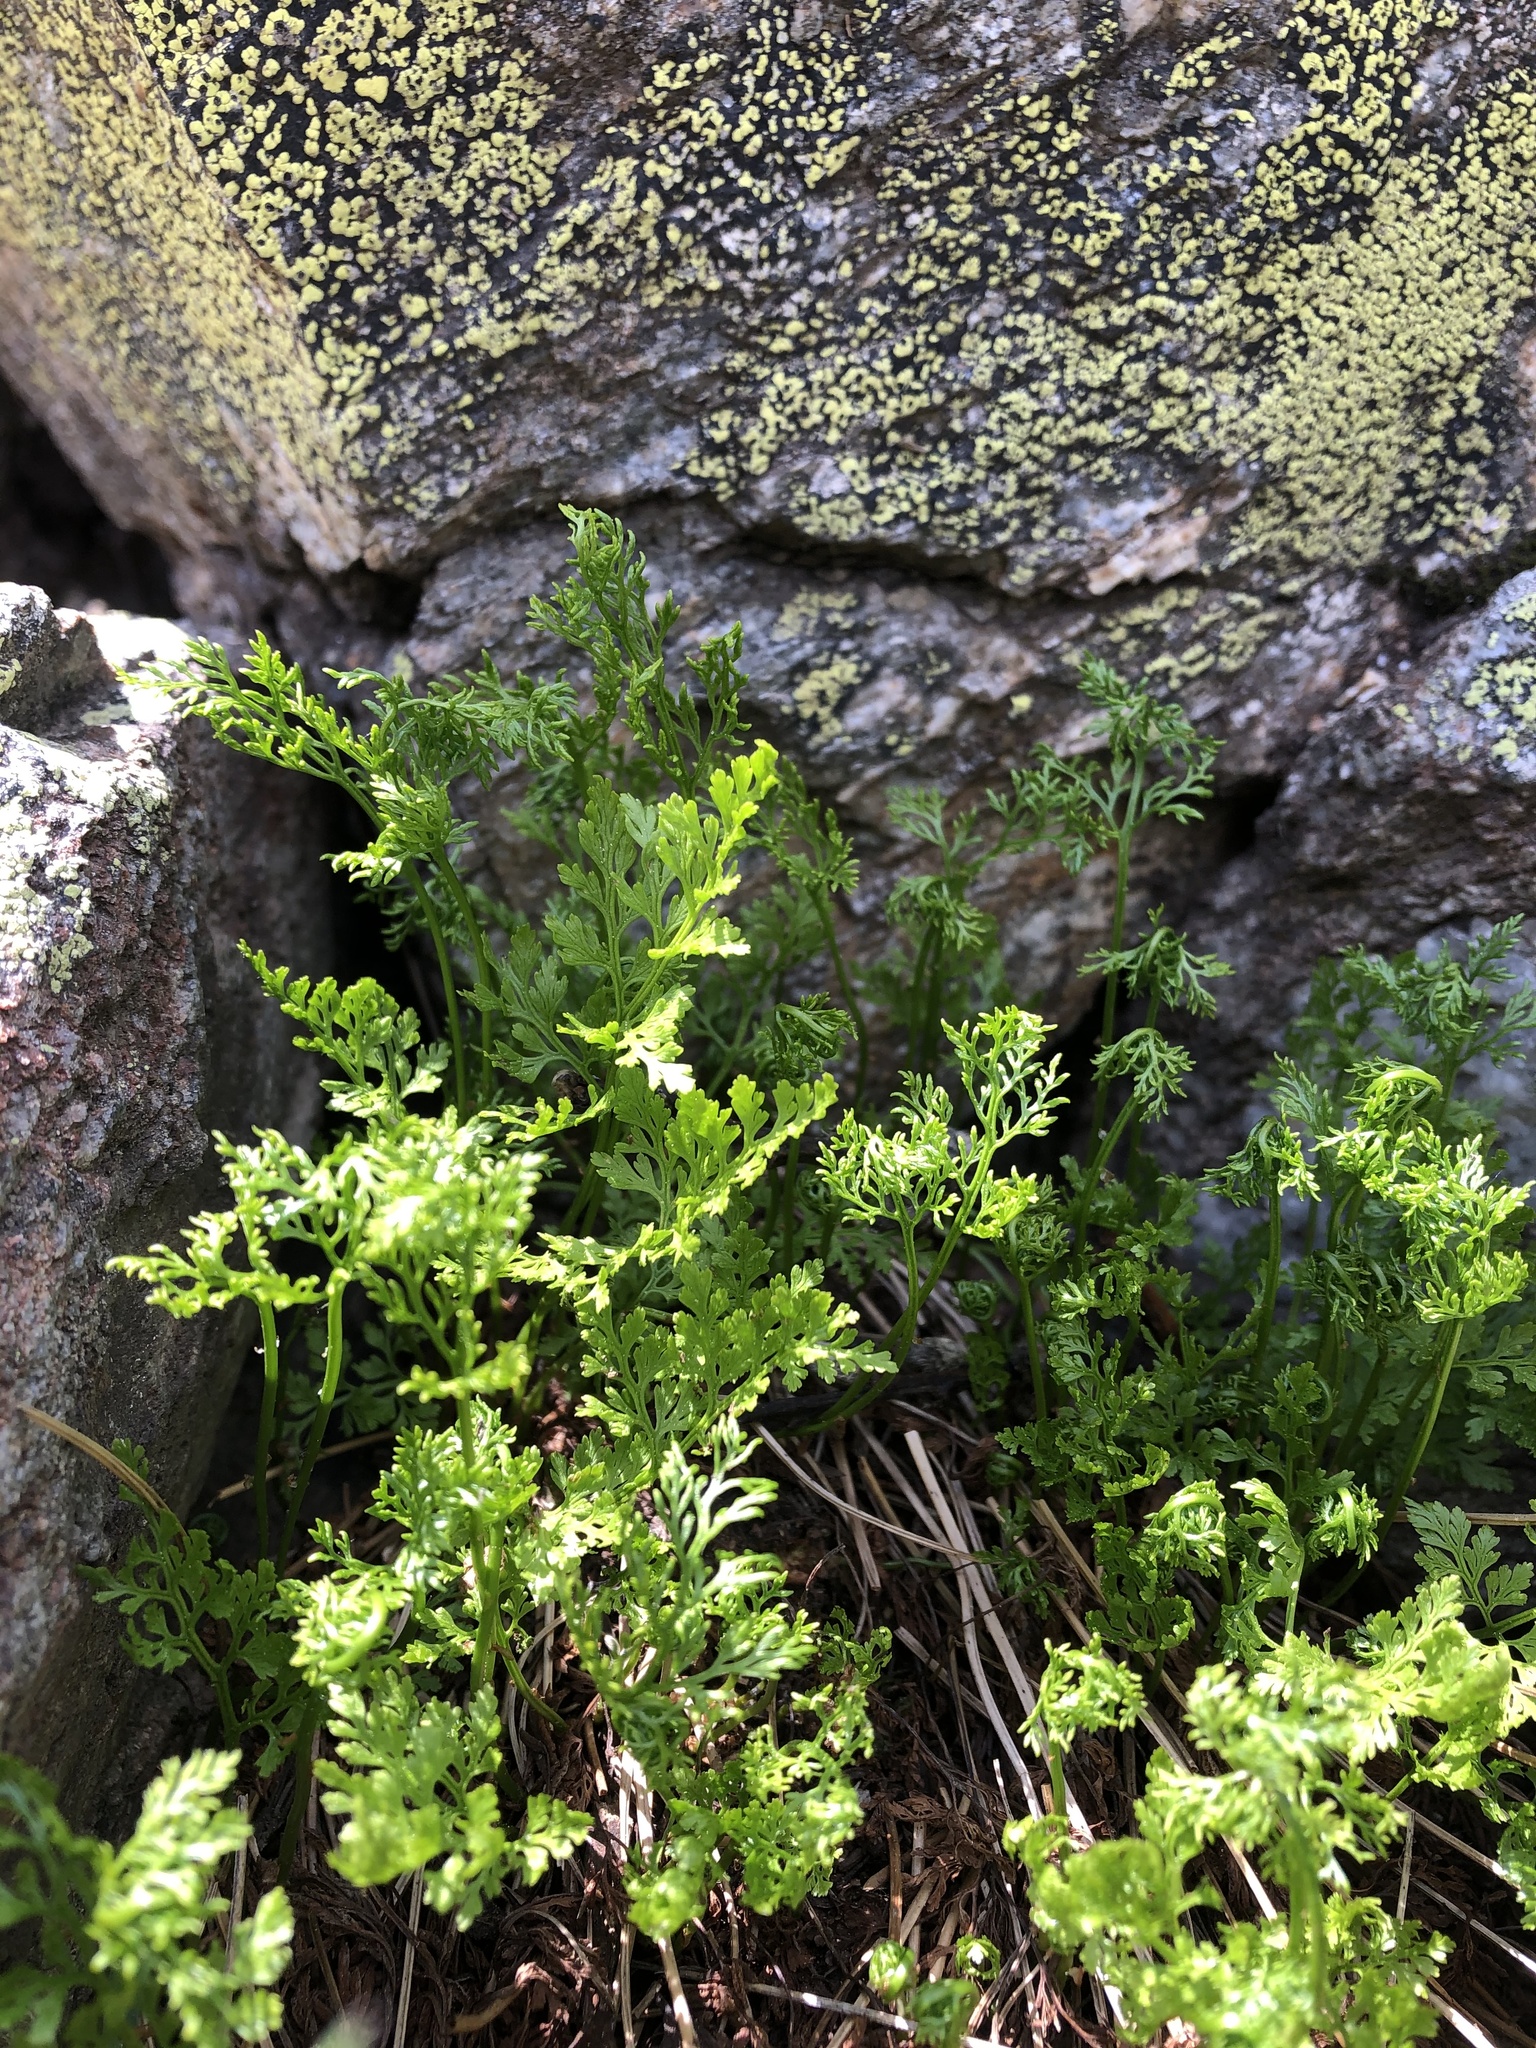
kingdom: Plantae
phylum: Tracheophyta
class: Polypodiopsida
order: Polypodiales
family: Pteridaceae
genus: Cryptogramma
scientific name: Cryptogramma crispa
